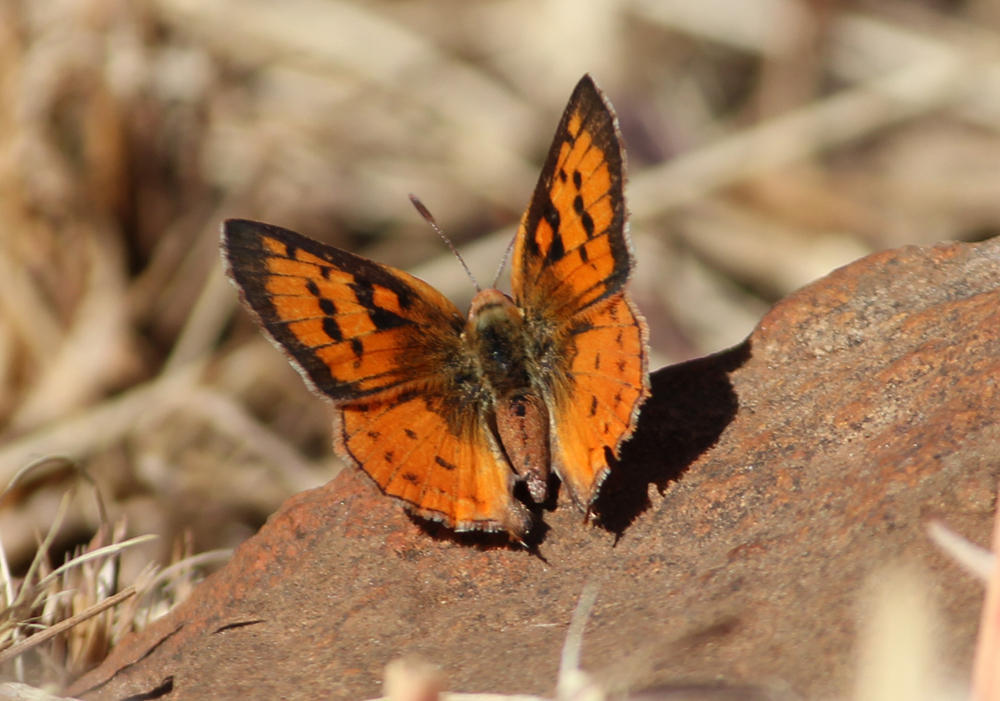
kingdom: Animalia
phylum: Arthropoda
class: Insecta
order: Lepidoptera
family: Lycaenidae
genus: Axiocerses
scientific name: Axiocerses perion
